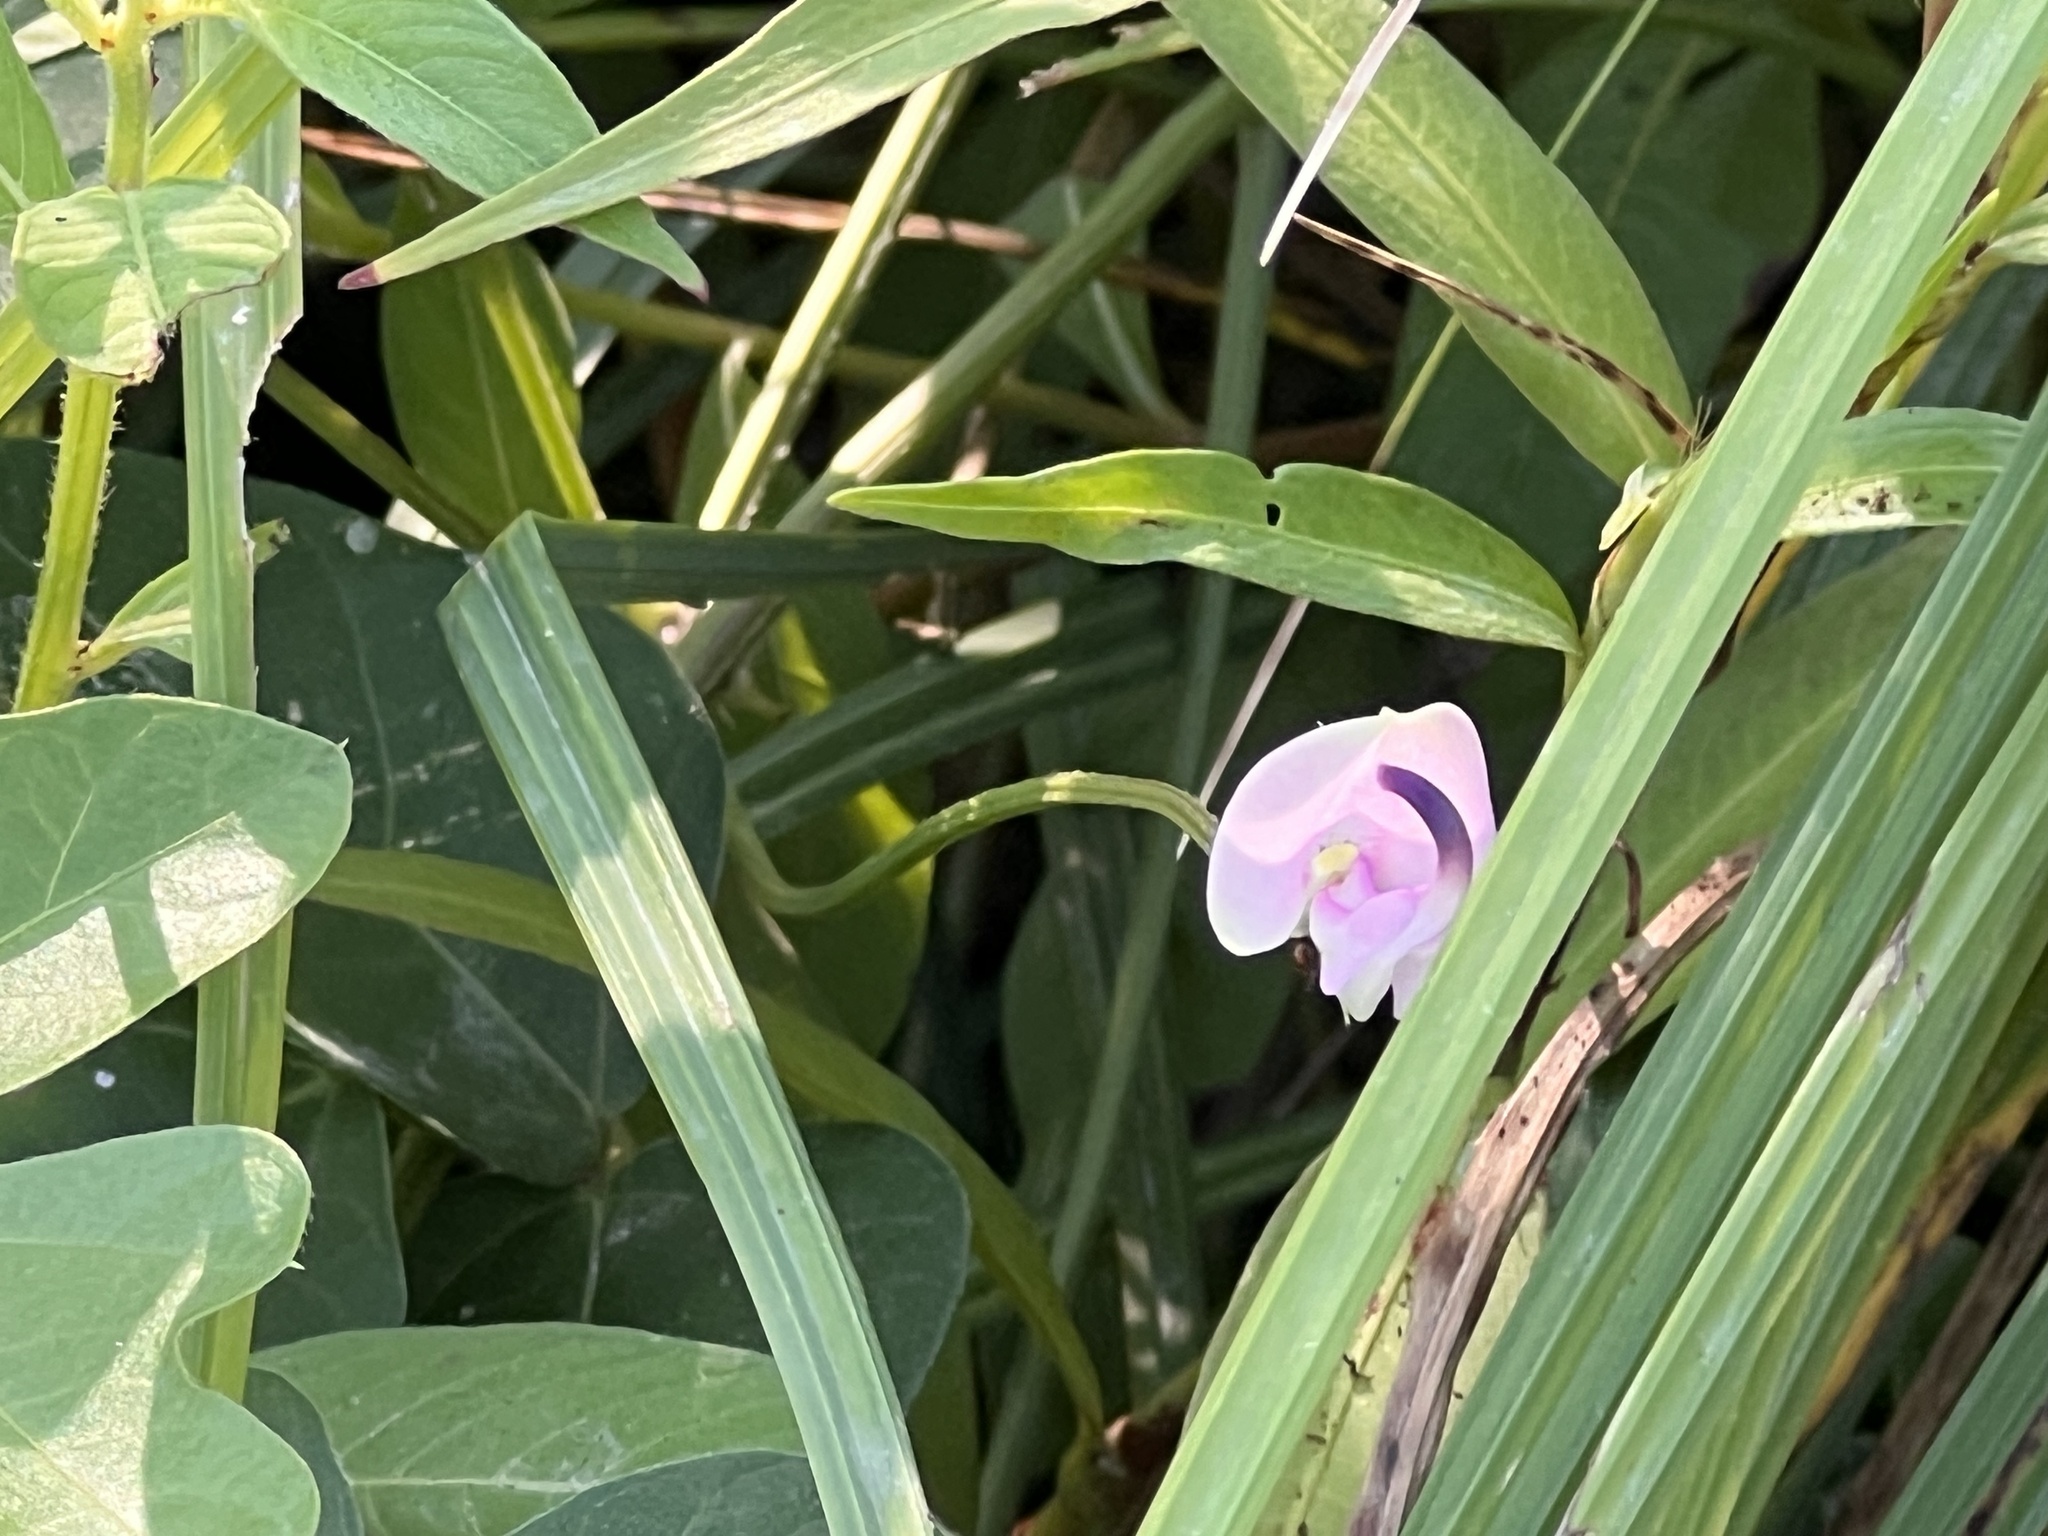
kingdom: Plantae
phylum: Tracheophyta
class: Magnoliopsida
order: Fabales
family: Fabaceae
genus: Strophostyles
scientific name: Strophostyles helvola
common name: Trailing wild bean
